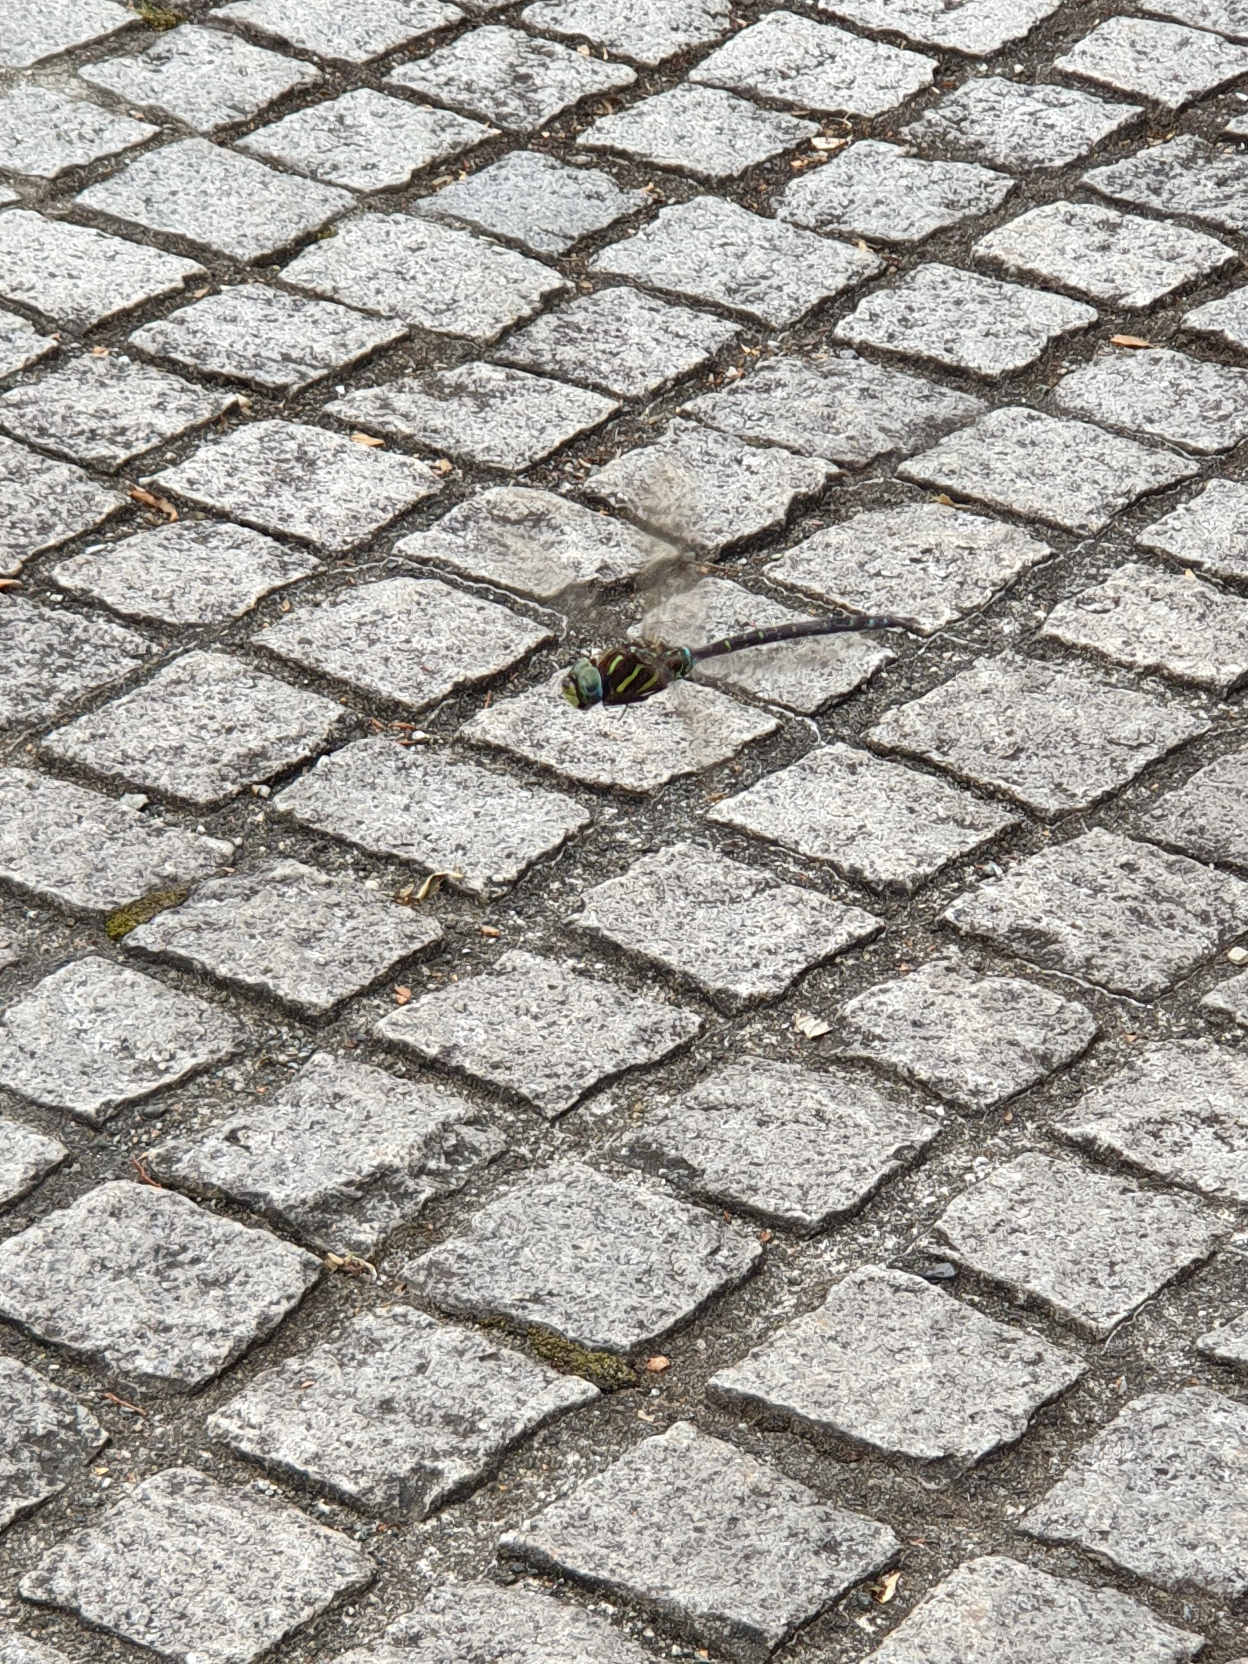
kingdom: Animalia
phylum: Arthropoda
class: Insecta
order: Odonata
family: Aeshnidae
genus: Aeshna
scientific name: Aeshna juncea
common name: Moorland hawker
